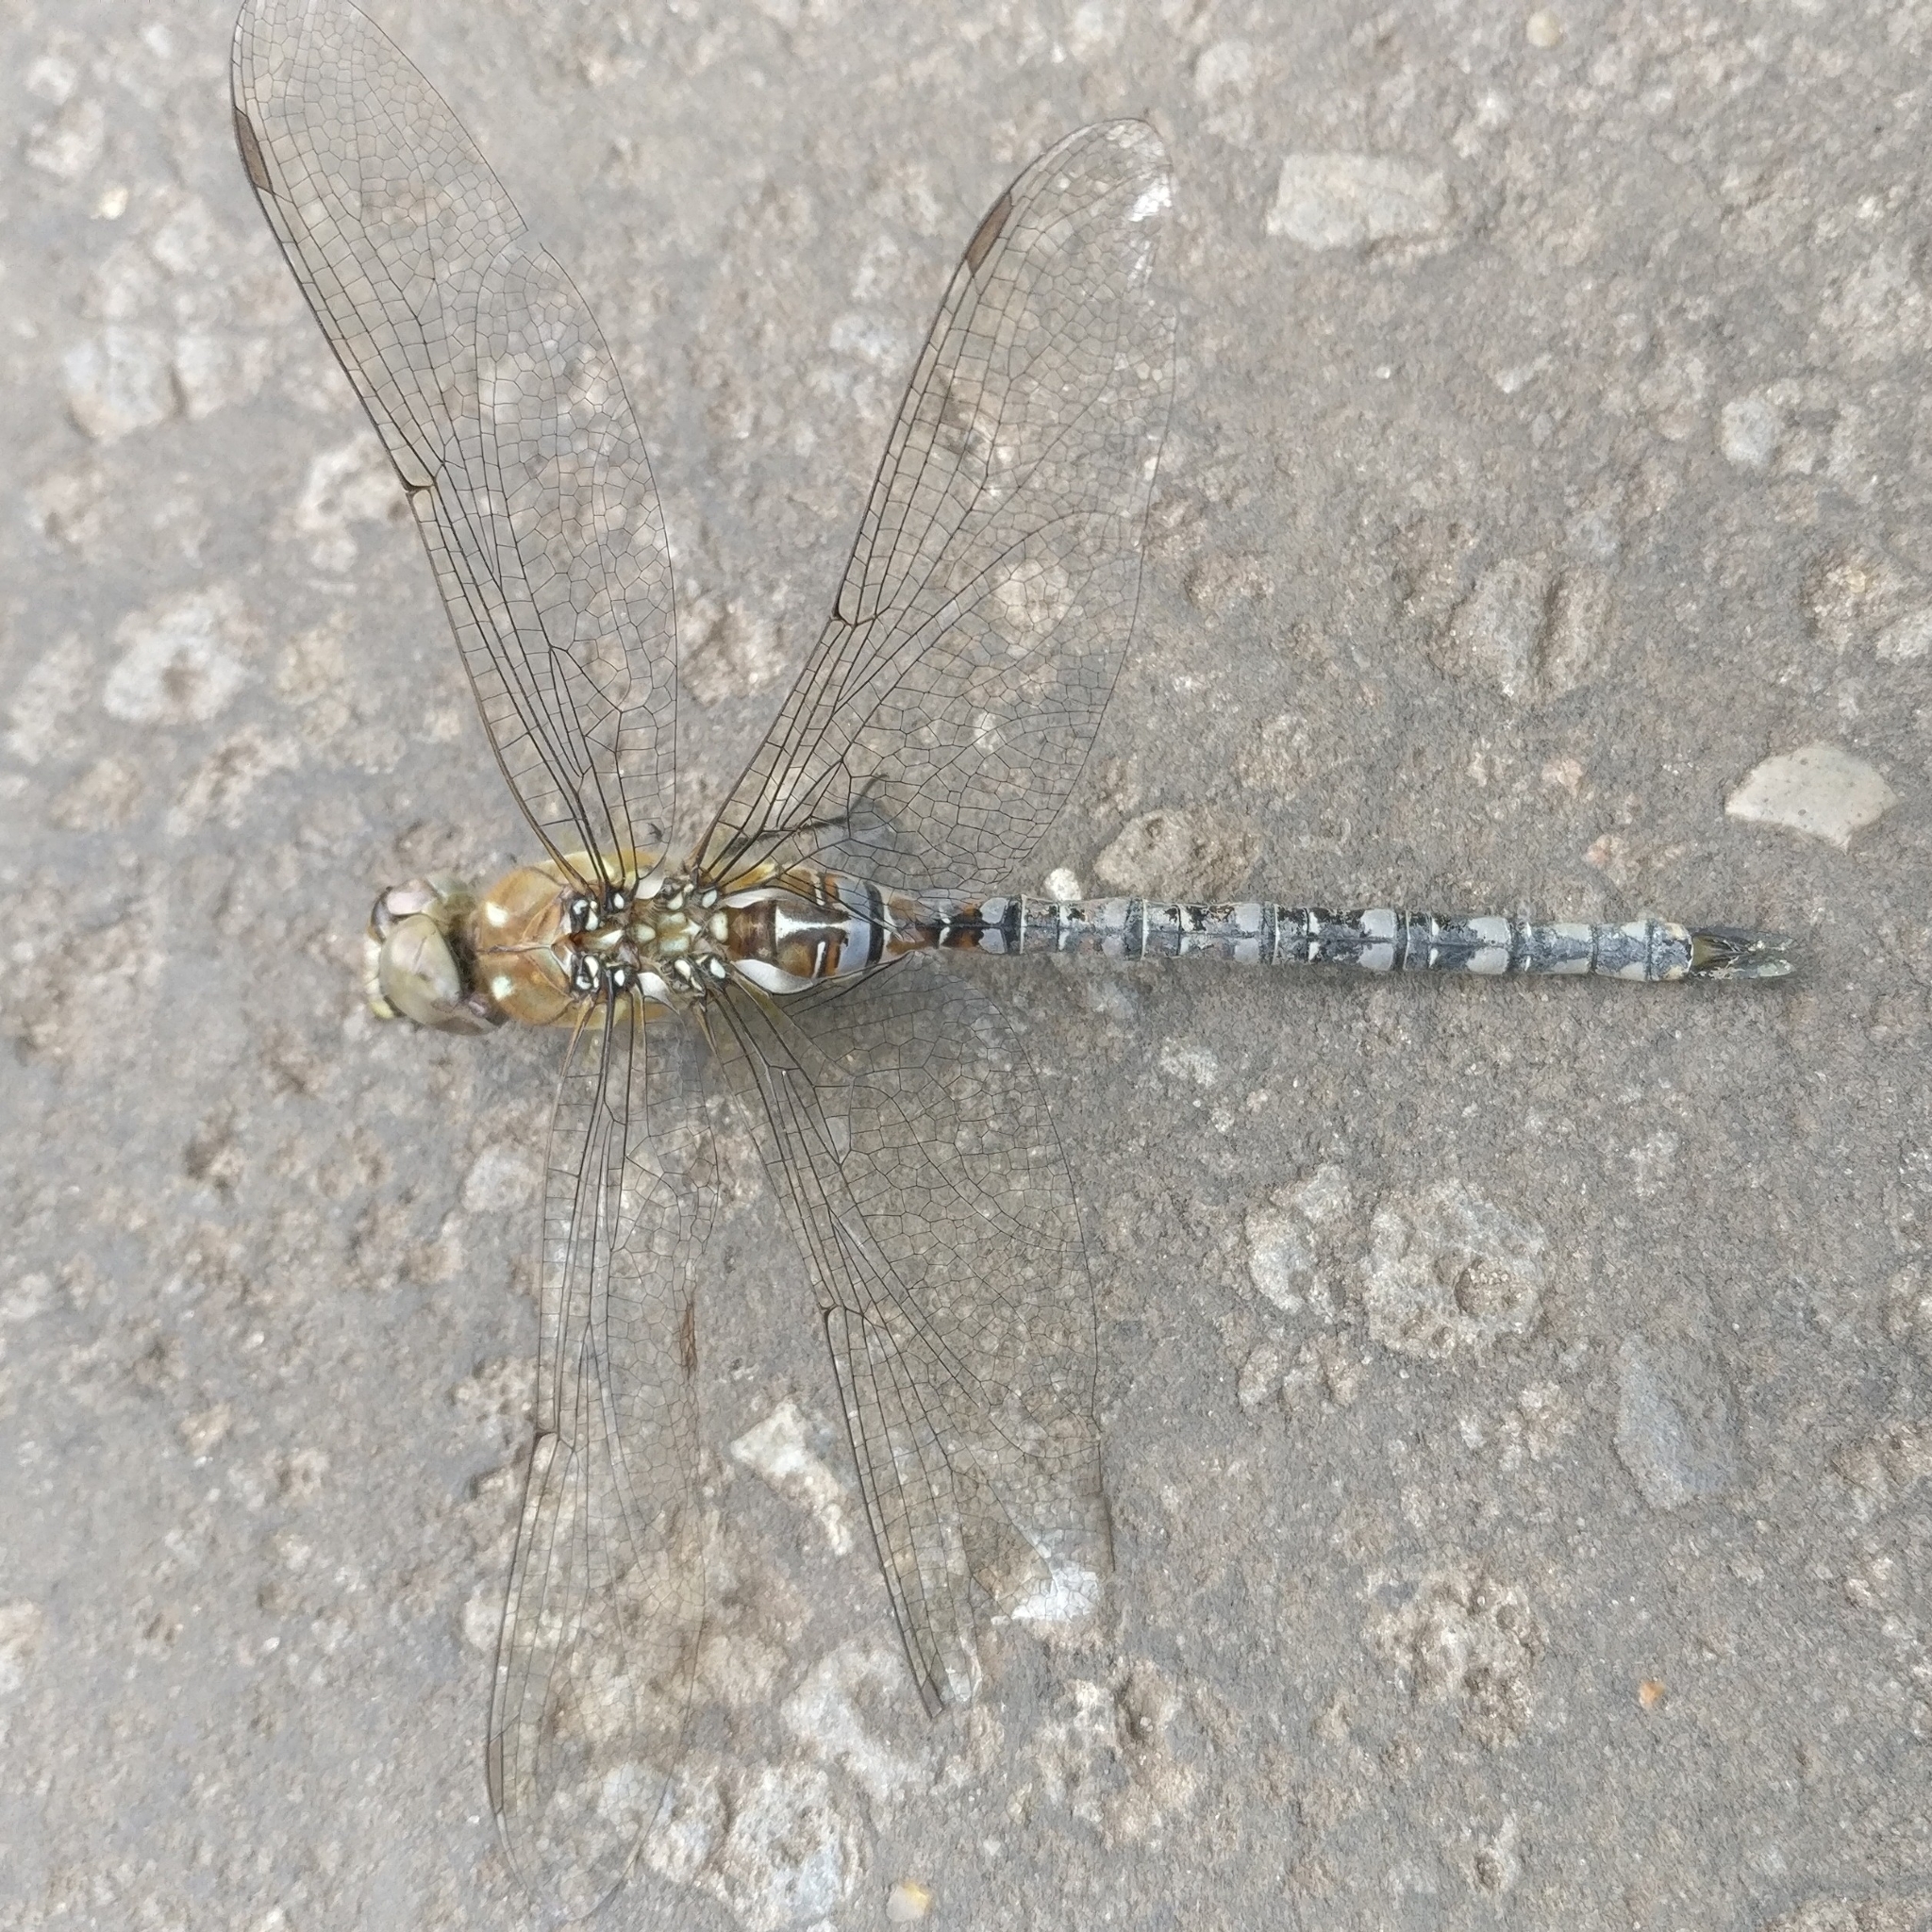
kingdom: Animalia
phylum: Arthropoda
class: Insecta
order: Odonata
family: Aeshnidae
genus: Aeshna
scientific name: Aeshna mixta
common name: Migrant hawker
